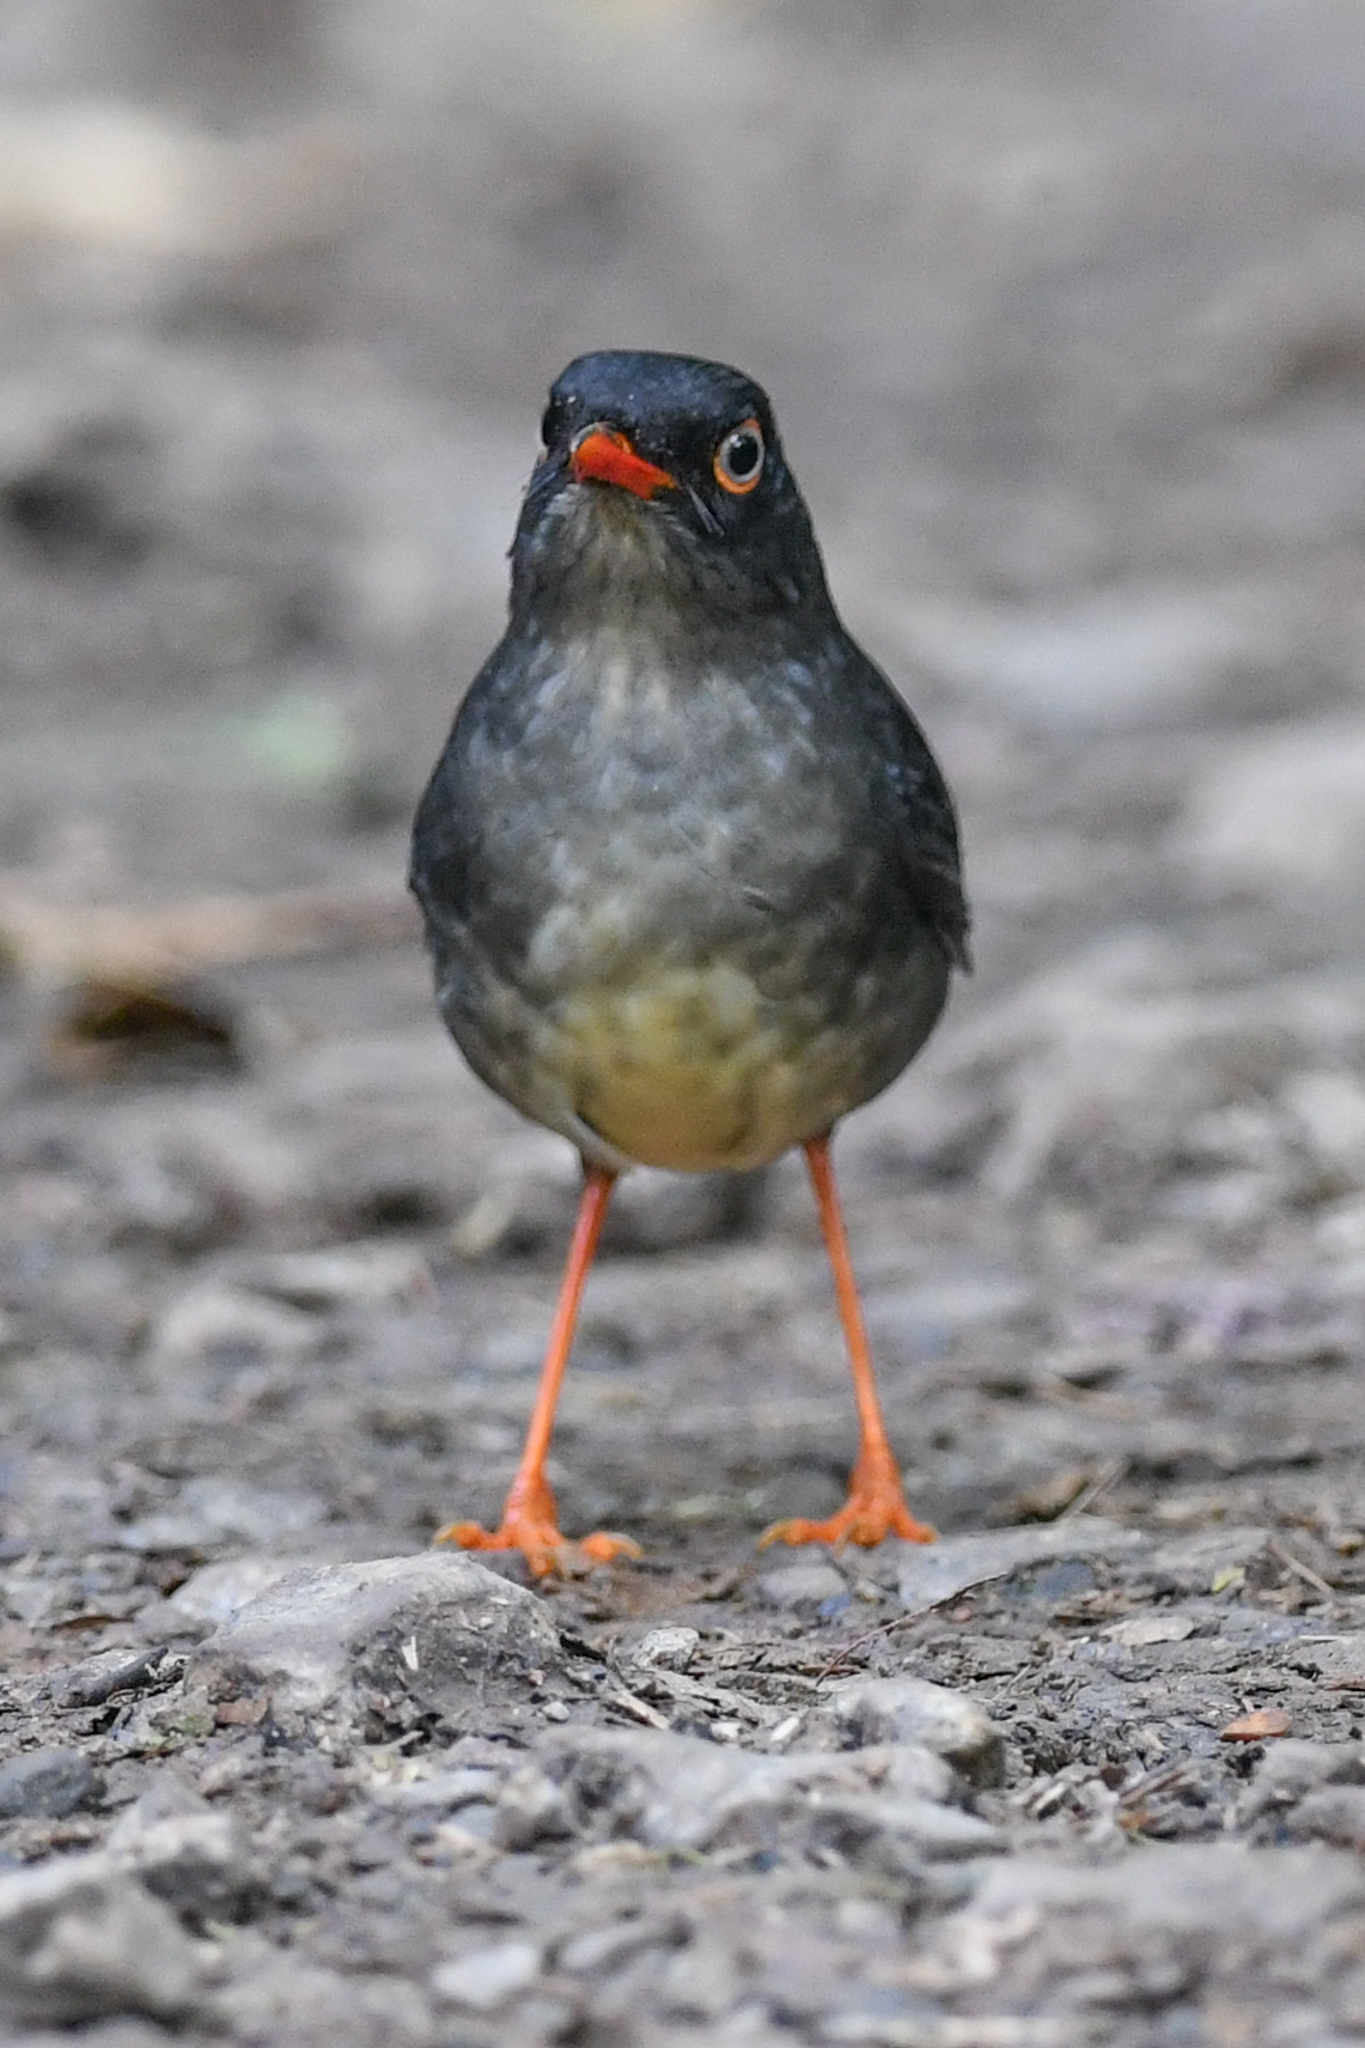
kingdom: Animalia
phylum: Chordata
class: Aves
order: Passeriformes
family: Turdidae
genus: Catharus
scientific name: Catharus fuscater
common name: Slaty-backed nightingale-thrush
